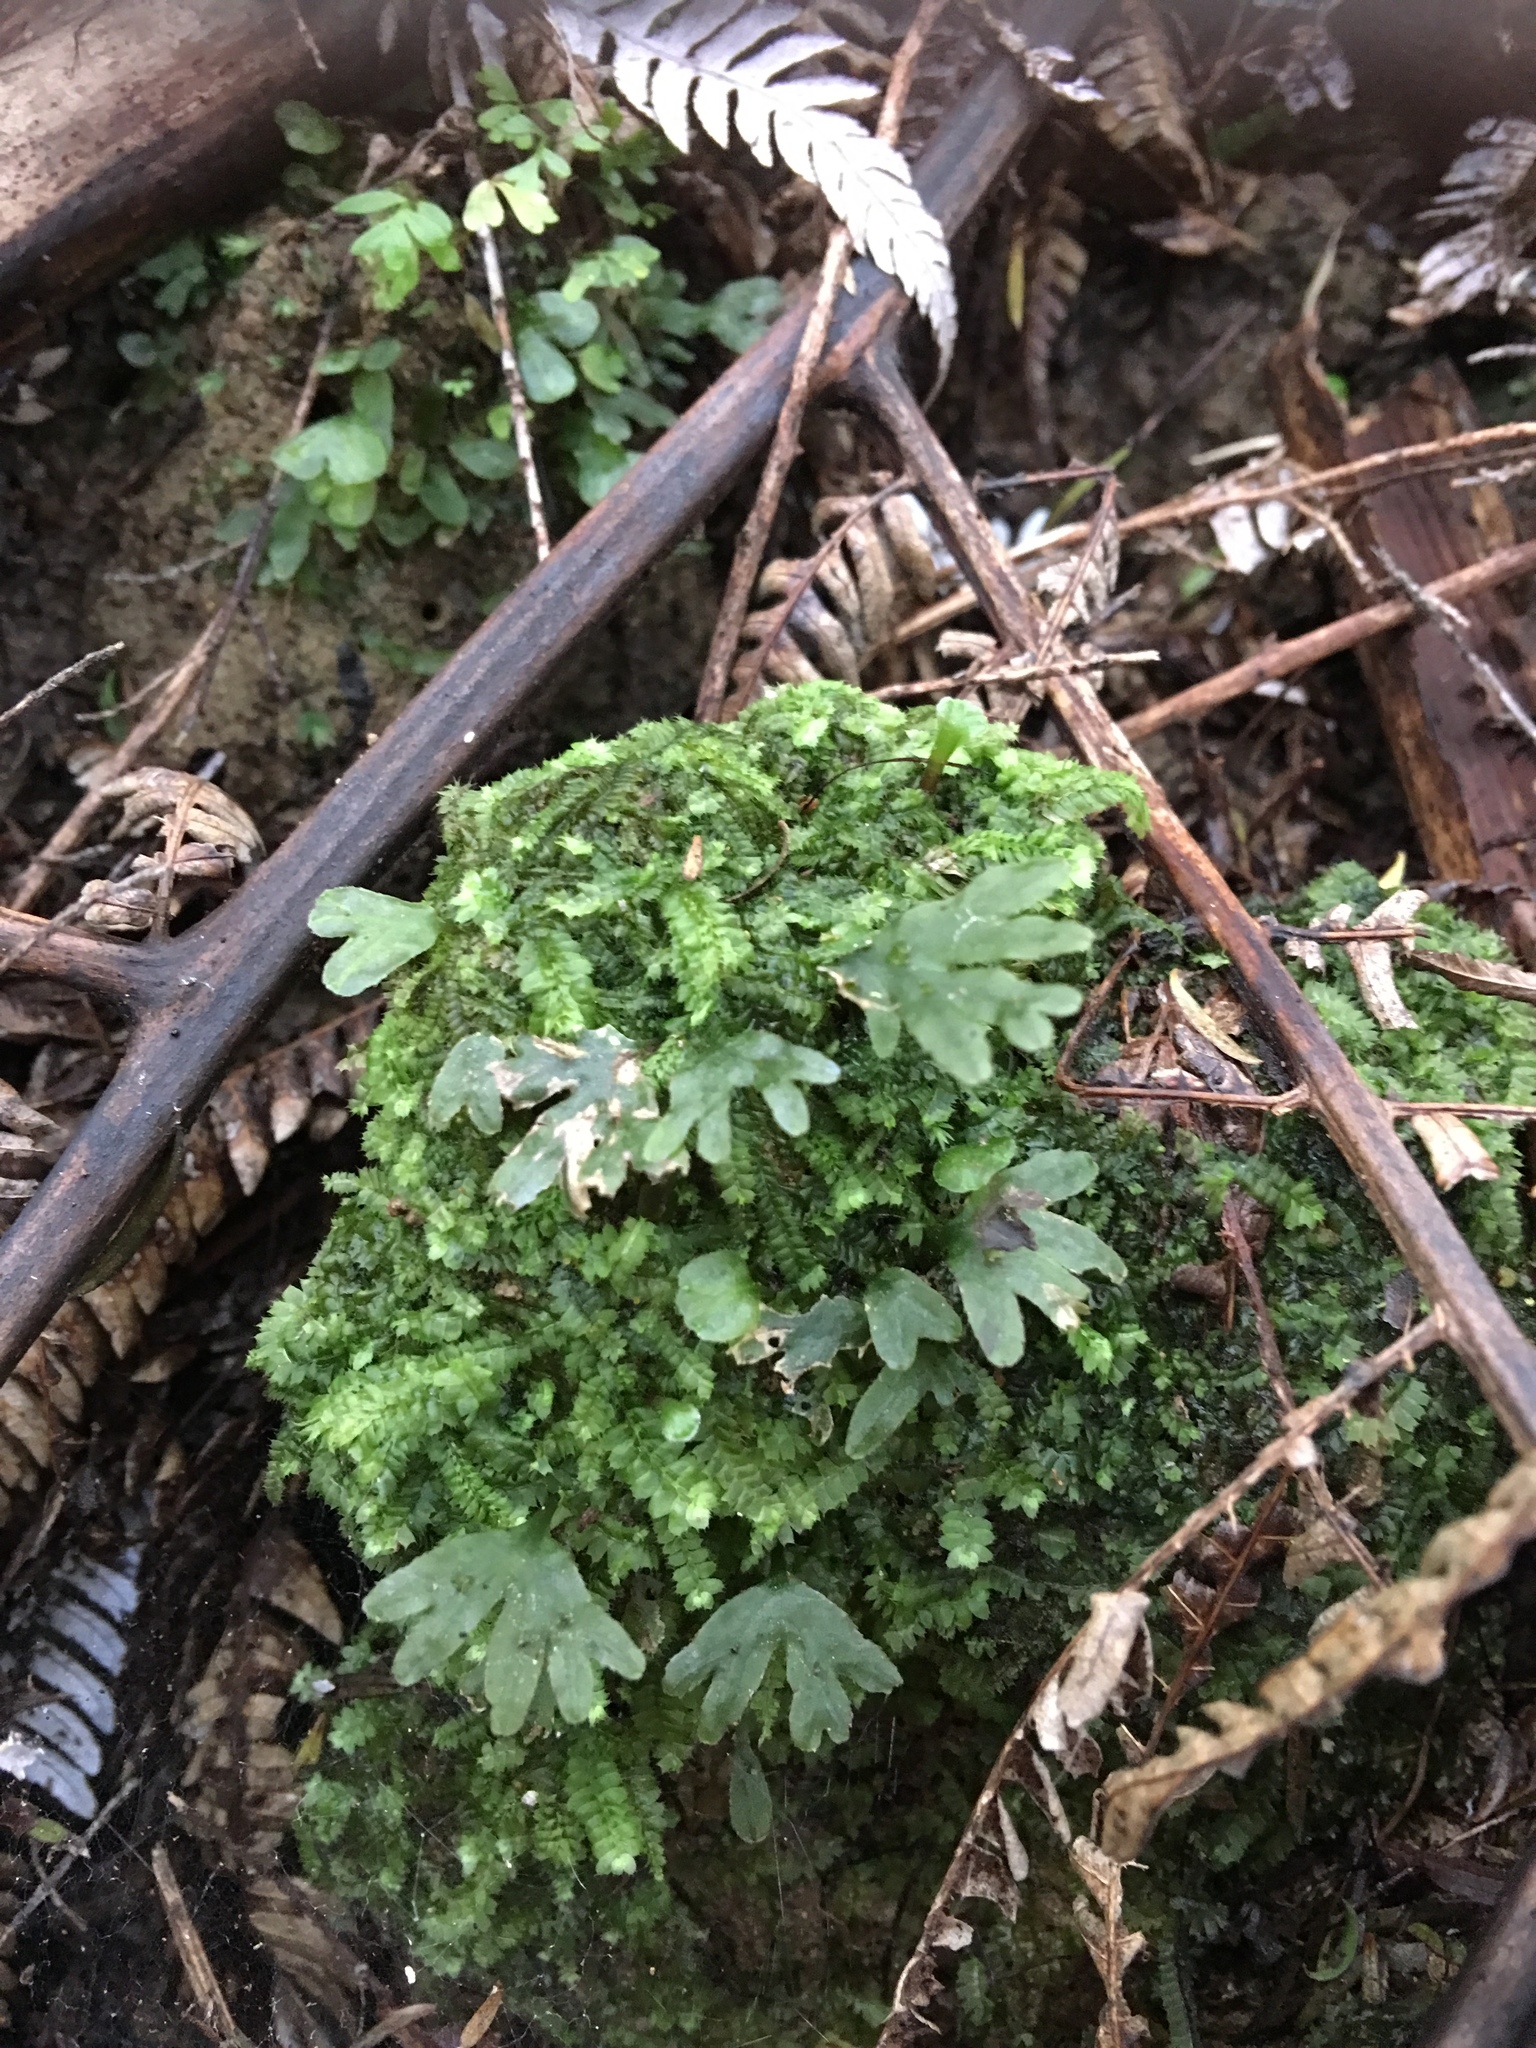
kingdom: Plantae
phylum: Marchantiophyta
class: Jungermanniopsida
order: Pallaviciniales
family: Pallaviciniaceae
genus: Symphyogyna
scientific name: Symphyogyna hymenophyllum
